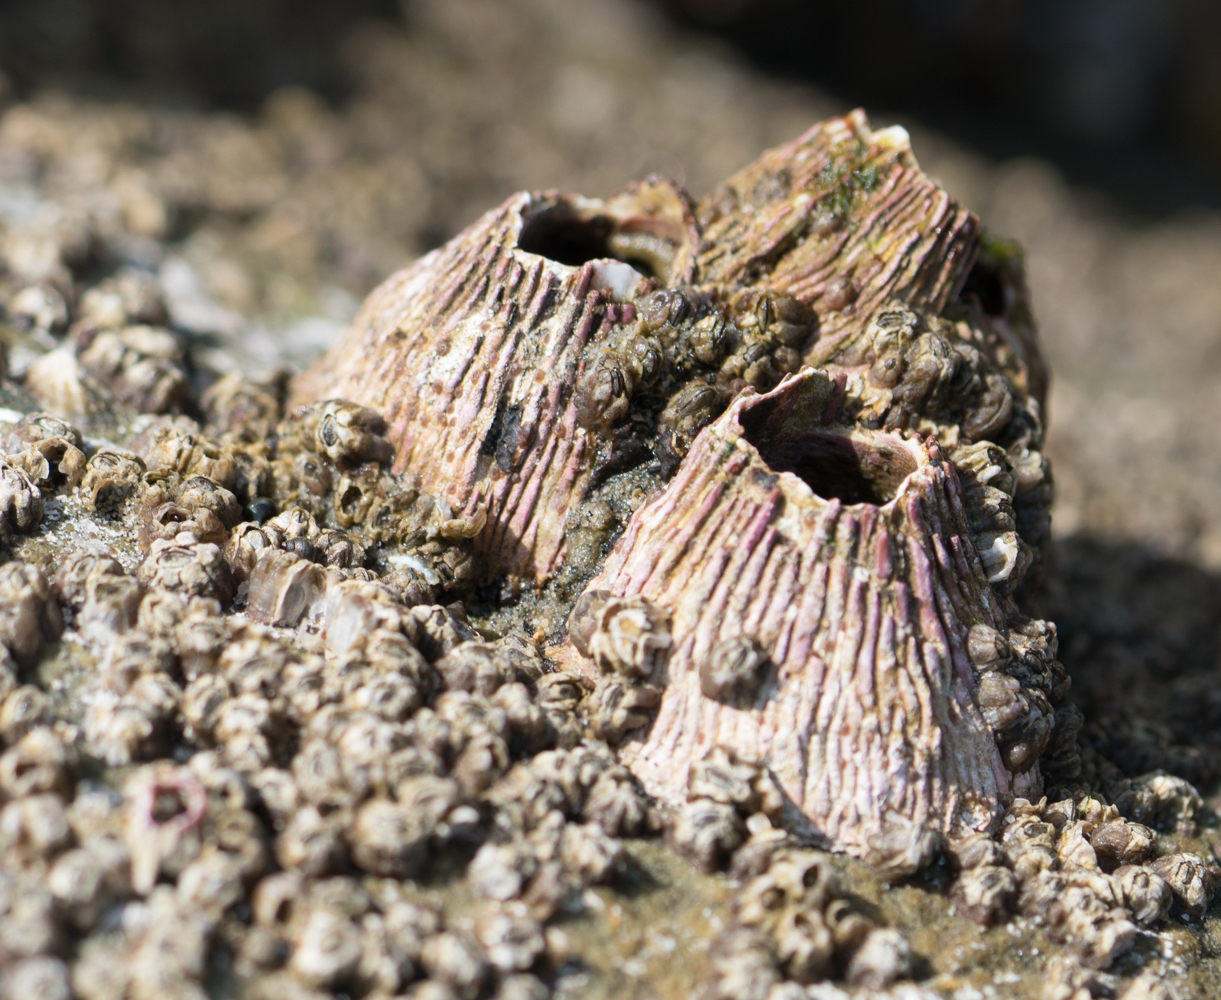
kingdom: Animalia
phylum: Arthropoda
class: Maxillopoda
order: Sessilia
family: Tetraclitidae
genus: Tetraclita
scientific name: Tetraclita rubescens
